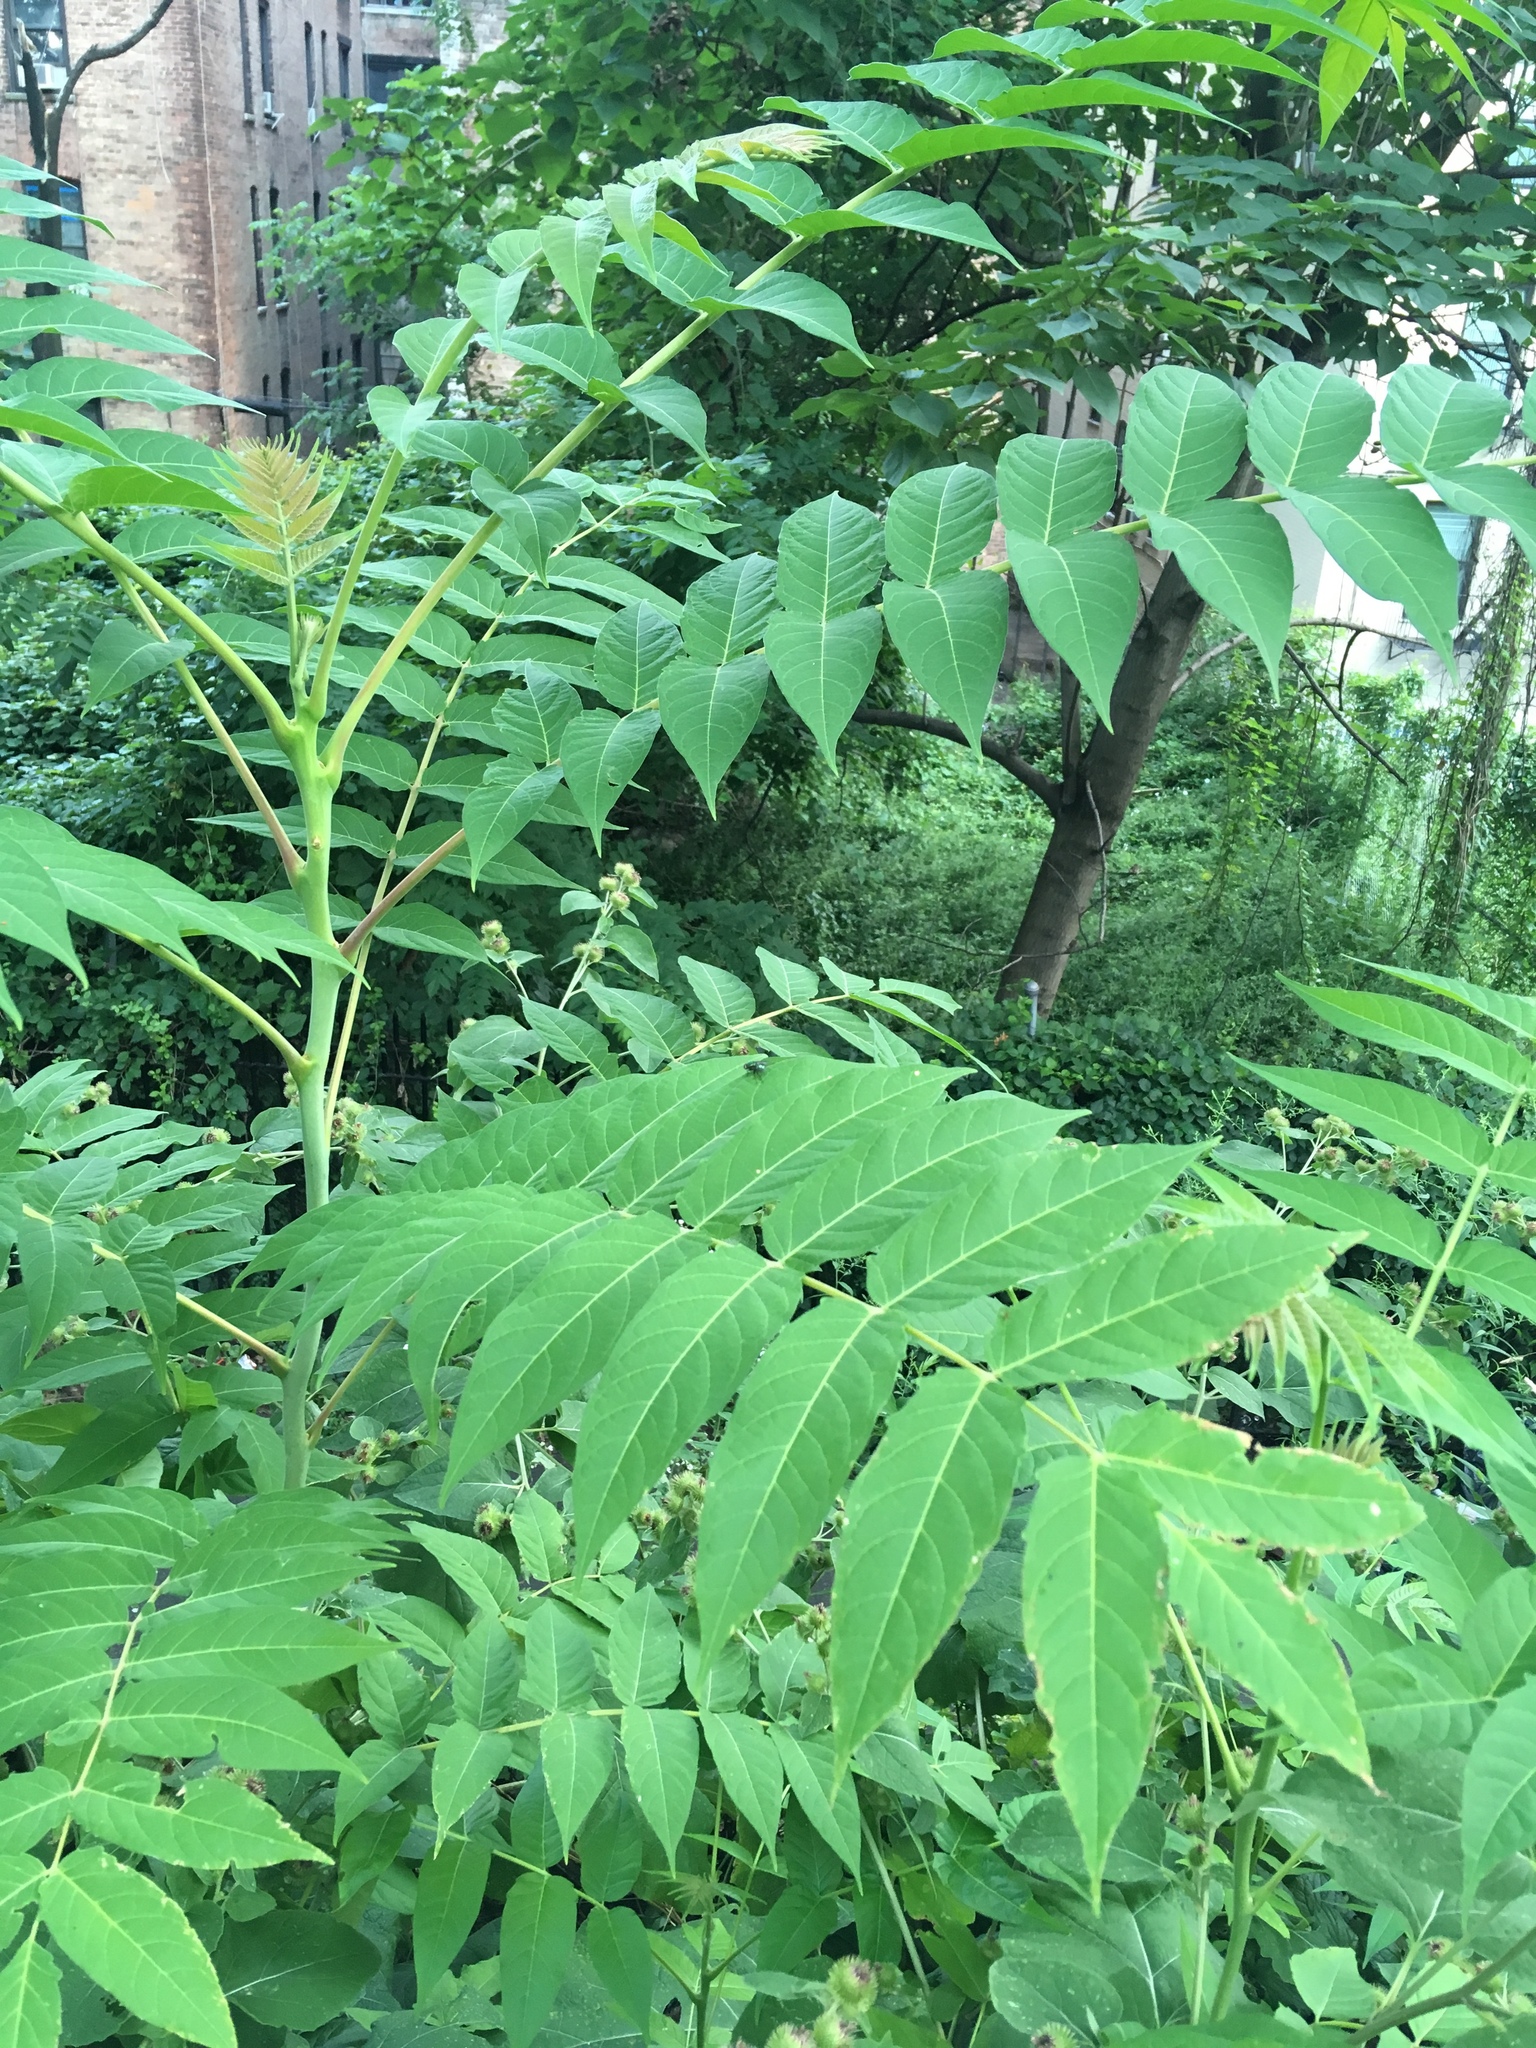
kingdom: Plantae
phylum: Tracheophyta
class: Magnoliopsida
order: Sapindales
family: Simaroubaceae
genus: Ailanthus
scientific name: Ailanthus altissima
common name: Tree-of-heaven
